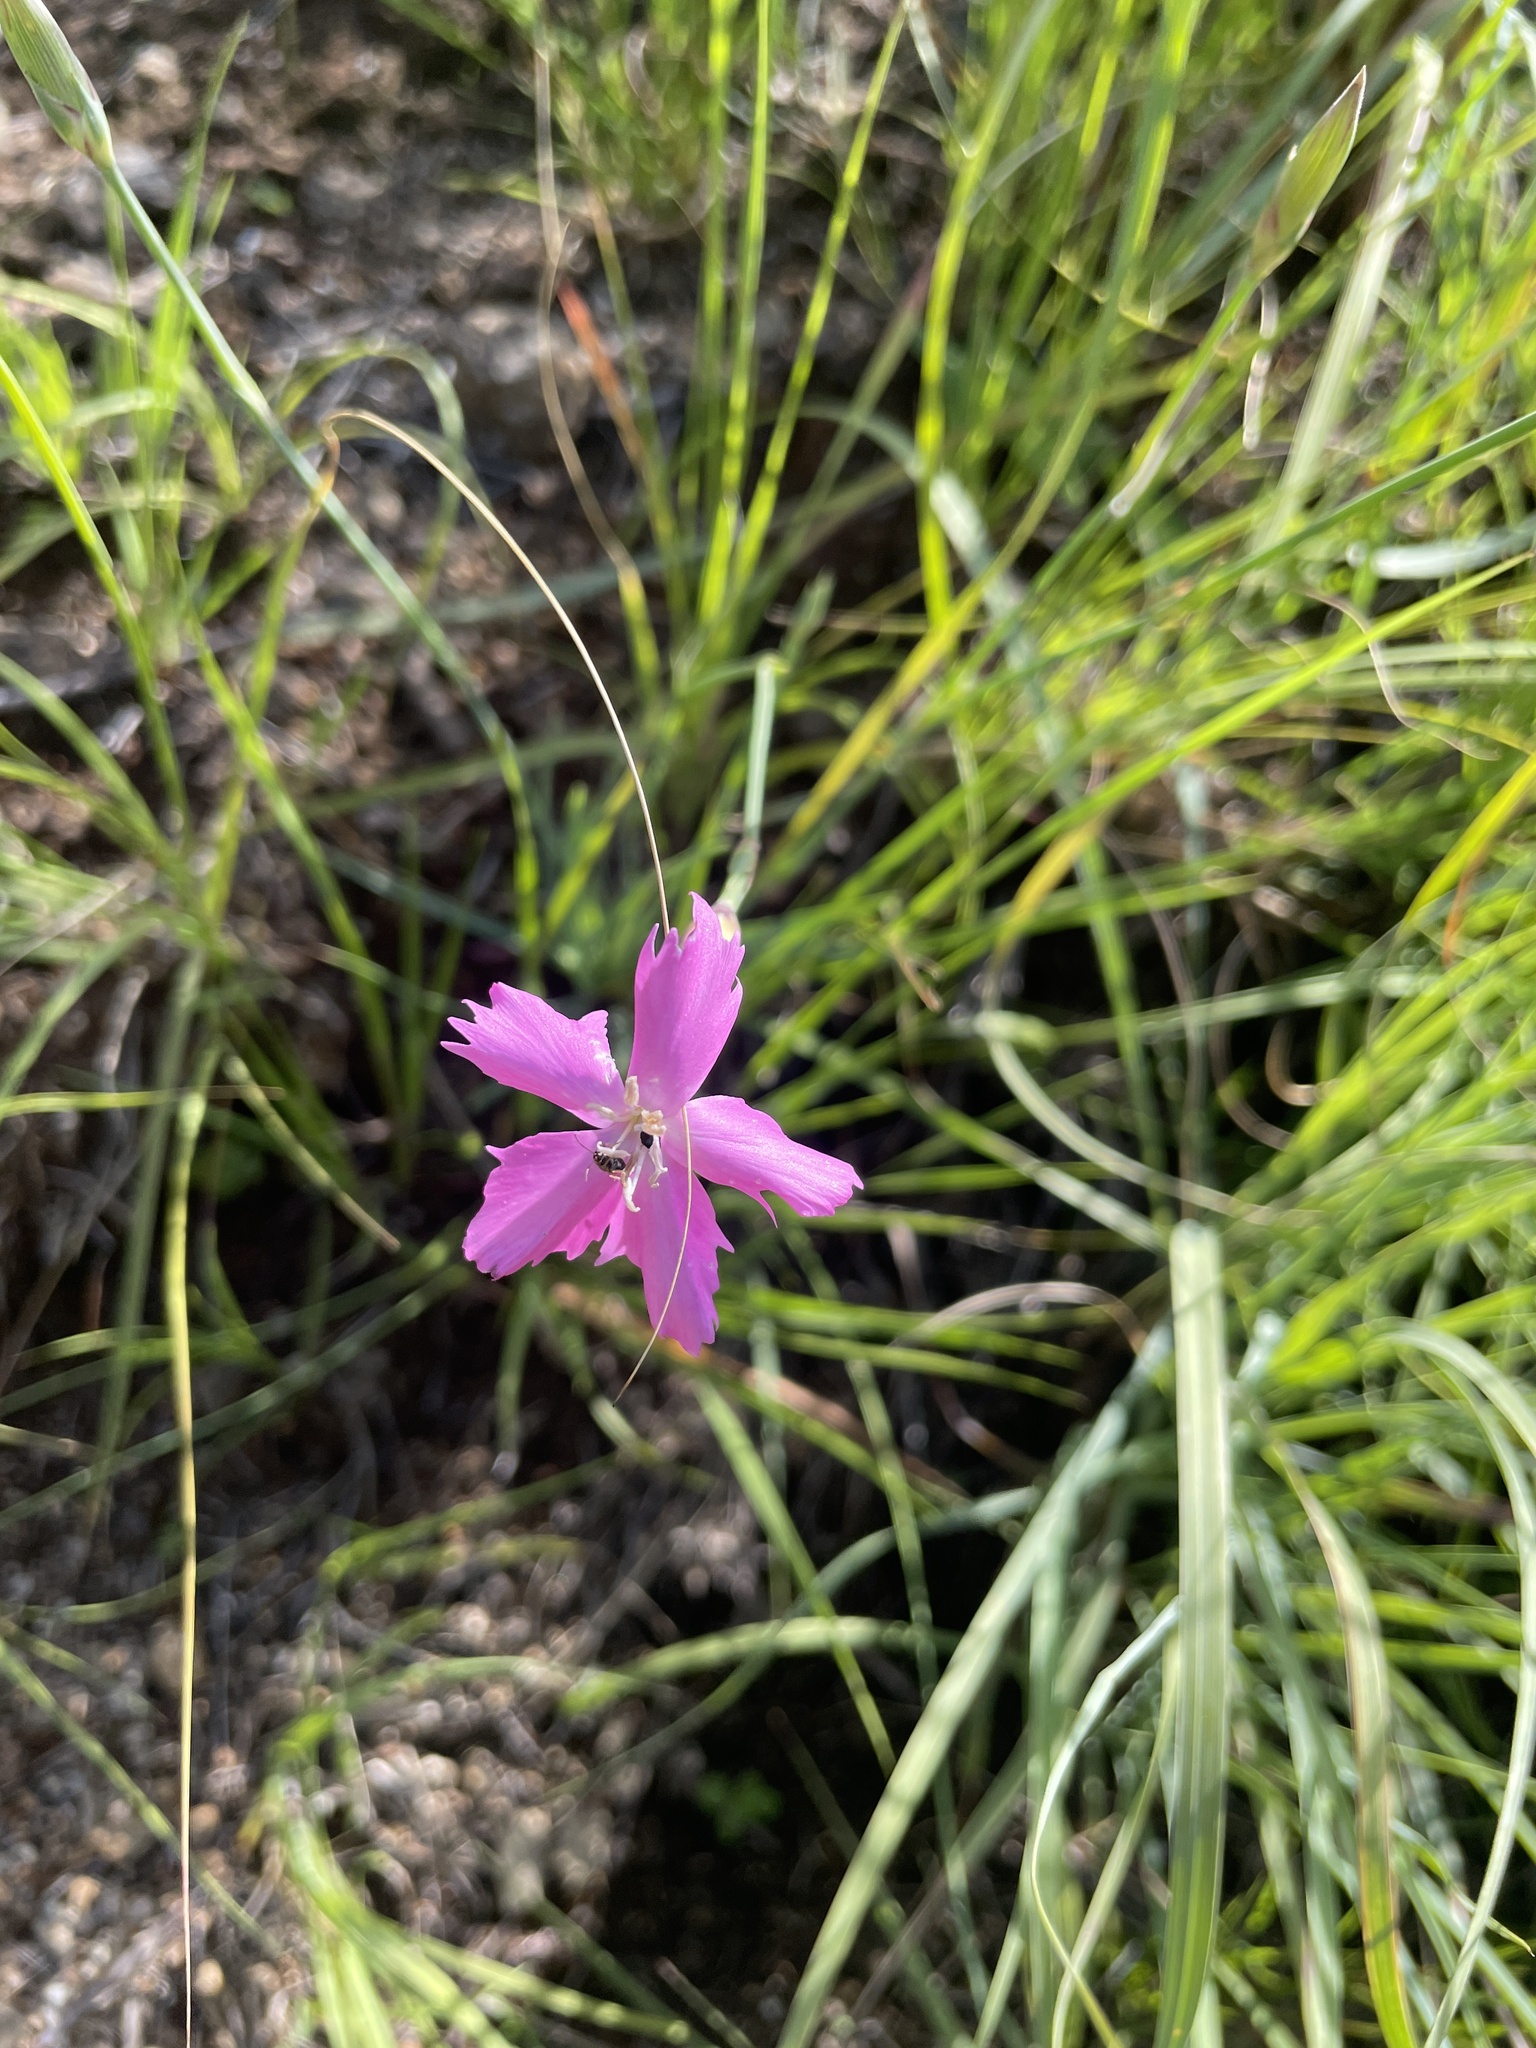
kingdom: Plantae
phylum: Tracheophyta
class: Magnoliopsida
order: Caryophyllales
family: Caryophyllaceae
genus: Dianthus
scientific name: Dianthus basuticus
